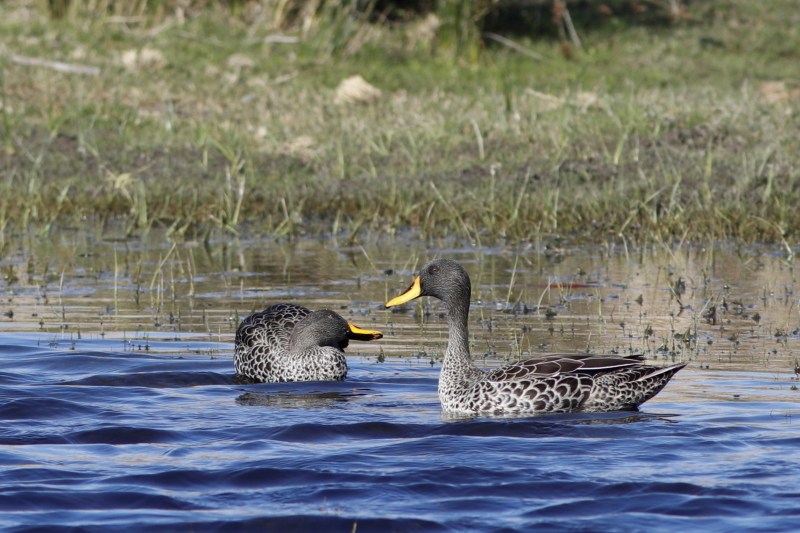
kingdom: Animalia
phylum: Chordata
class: Aves
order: Anseriformes
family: Anatidae
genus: Anas
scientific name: Anas undulata
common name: Yellow-billed duck
